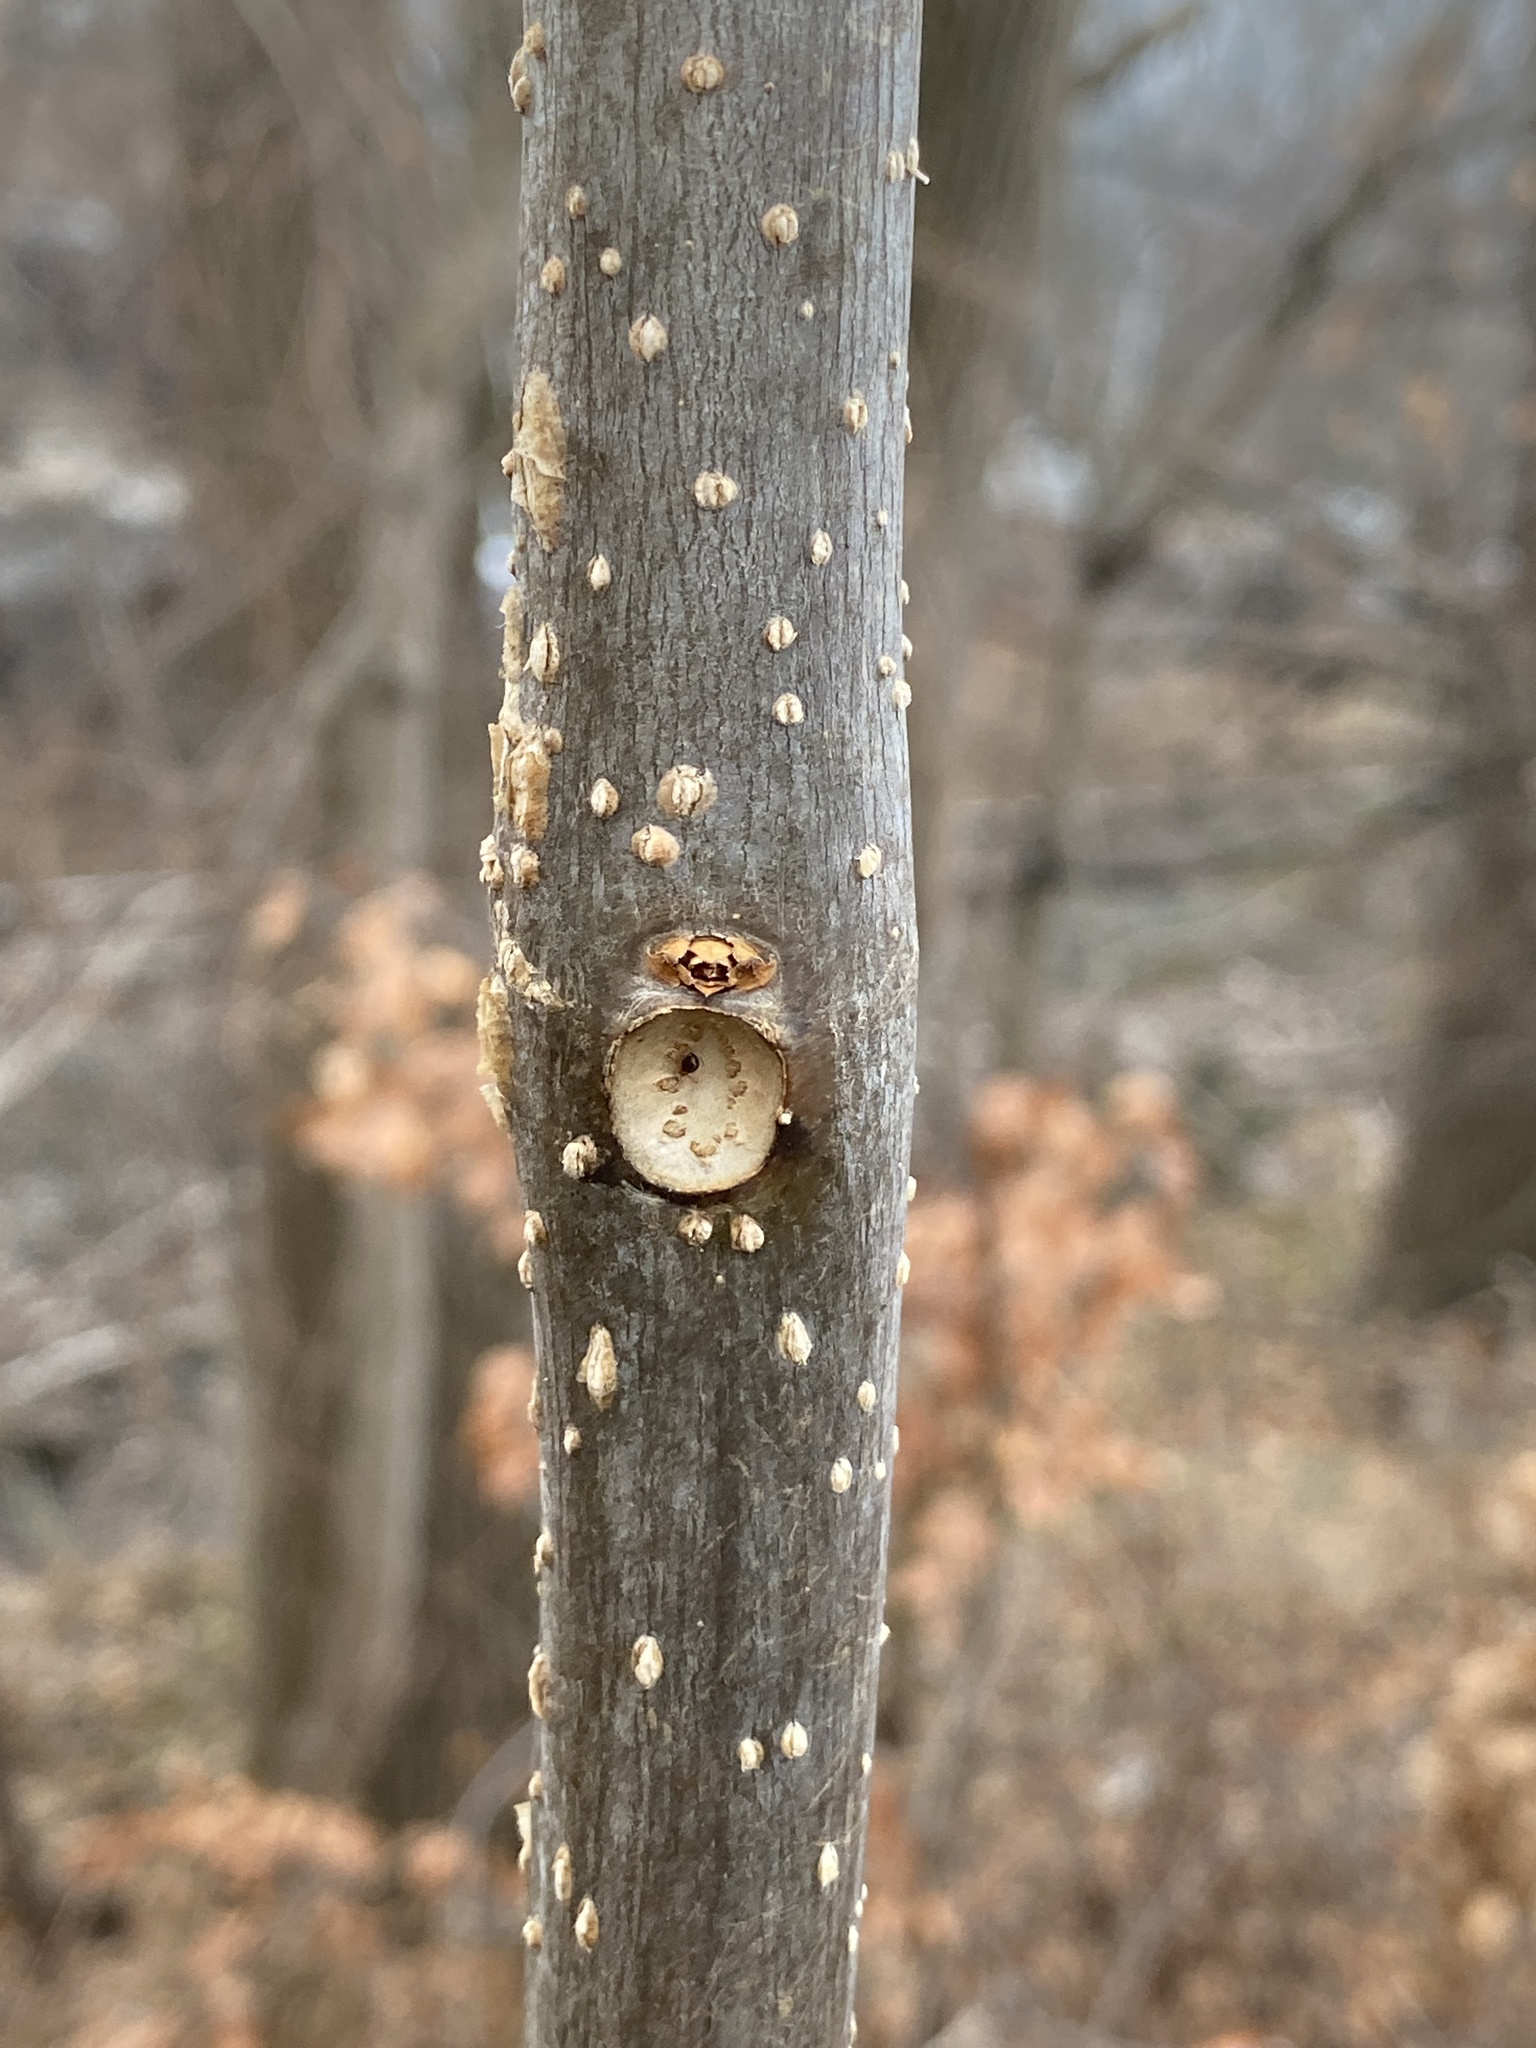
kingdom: Plantae
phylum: Tracheophyta
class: Magnoliopsida
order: Lamiales
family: Bignoniaceae
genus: Catalpa
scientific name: Catalpa
